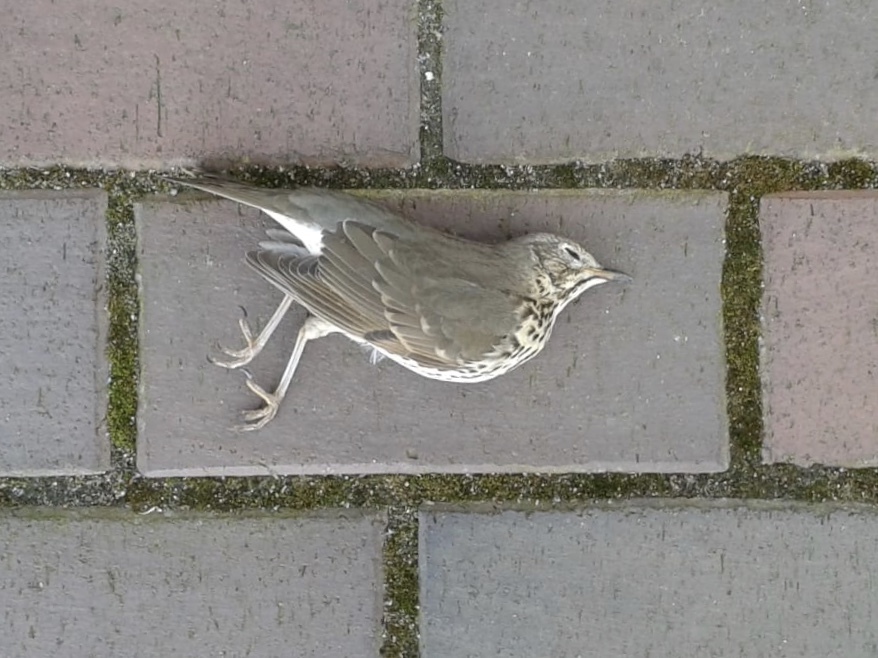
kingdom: Animalia
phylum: Chordata
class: Aves
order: Passeriformes
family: Turdidae
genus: Turdus
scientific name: Turdus philomelos
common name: Song thrush
